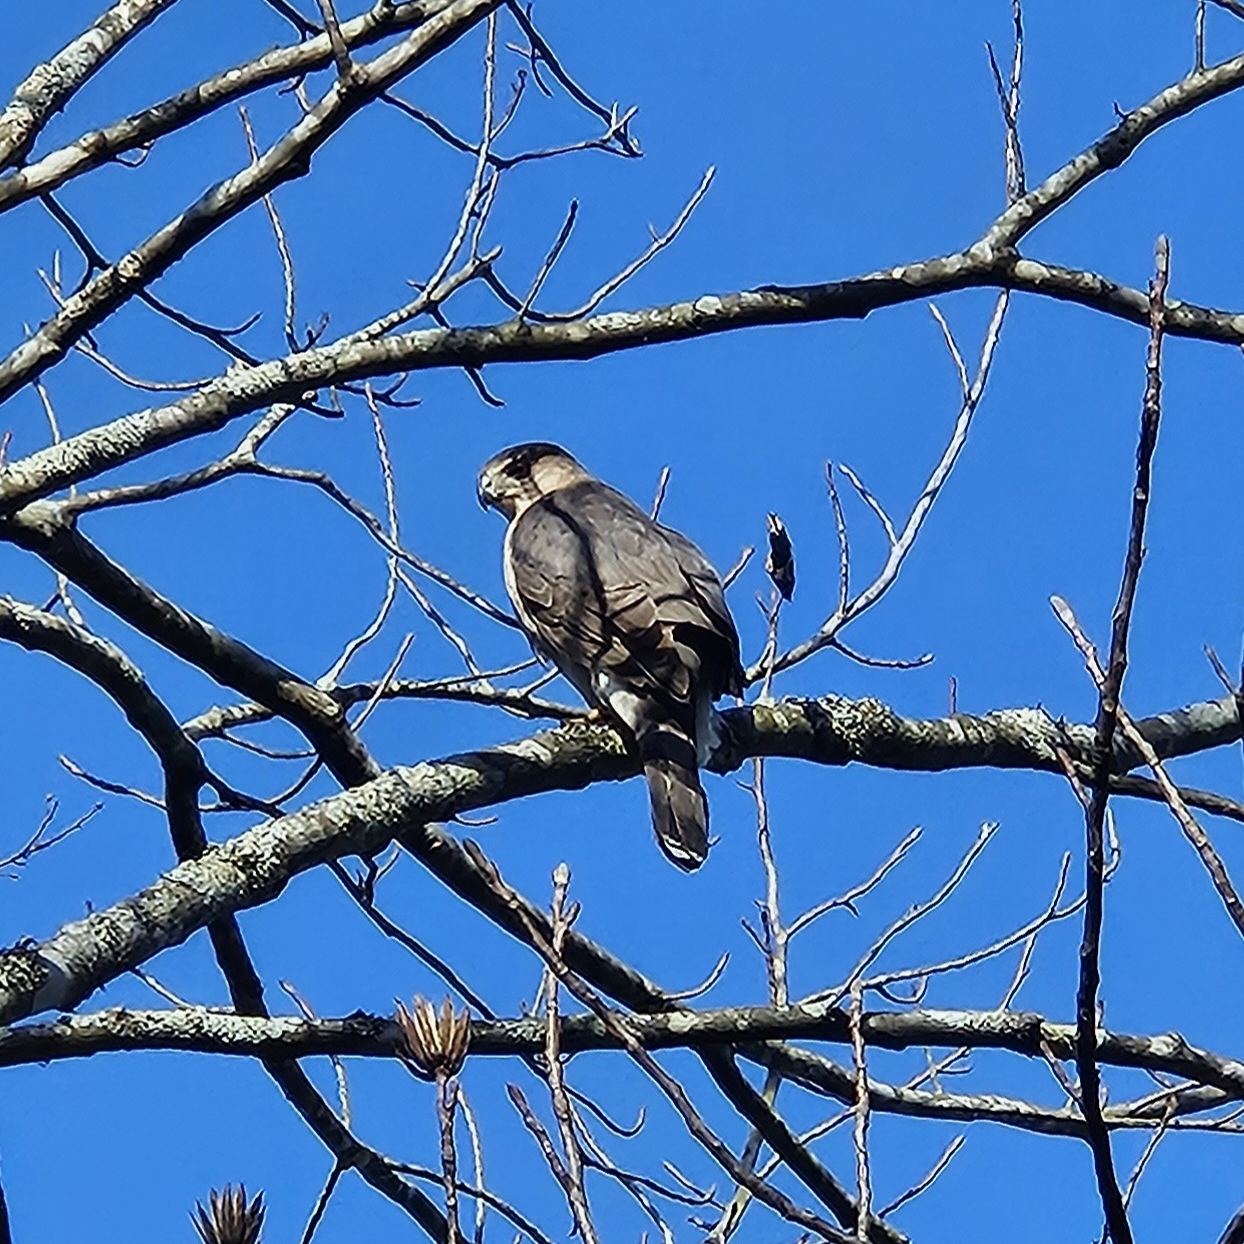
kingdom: Animalia
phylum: Chordata
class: Aves
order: Accipitriformes
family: Accipitridae
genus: Accipiter
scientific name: Accipiter cooperii
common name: Cooper's hawk
